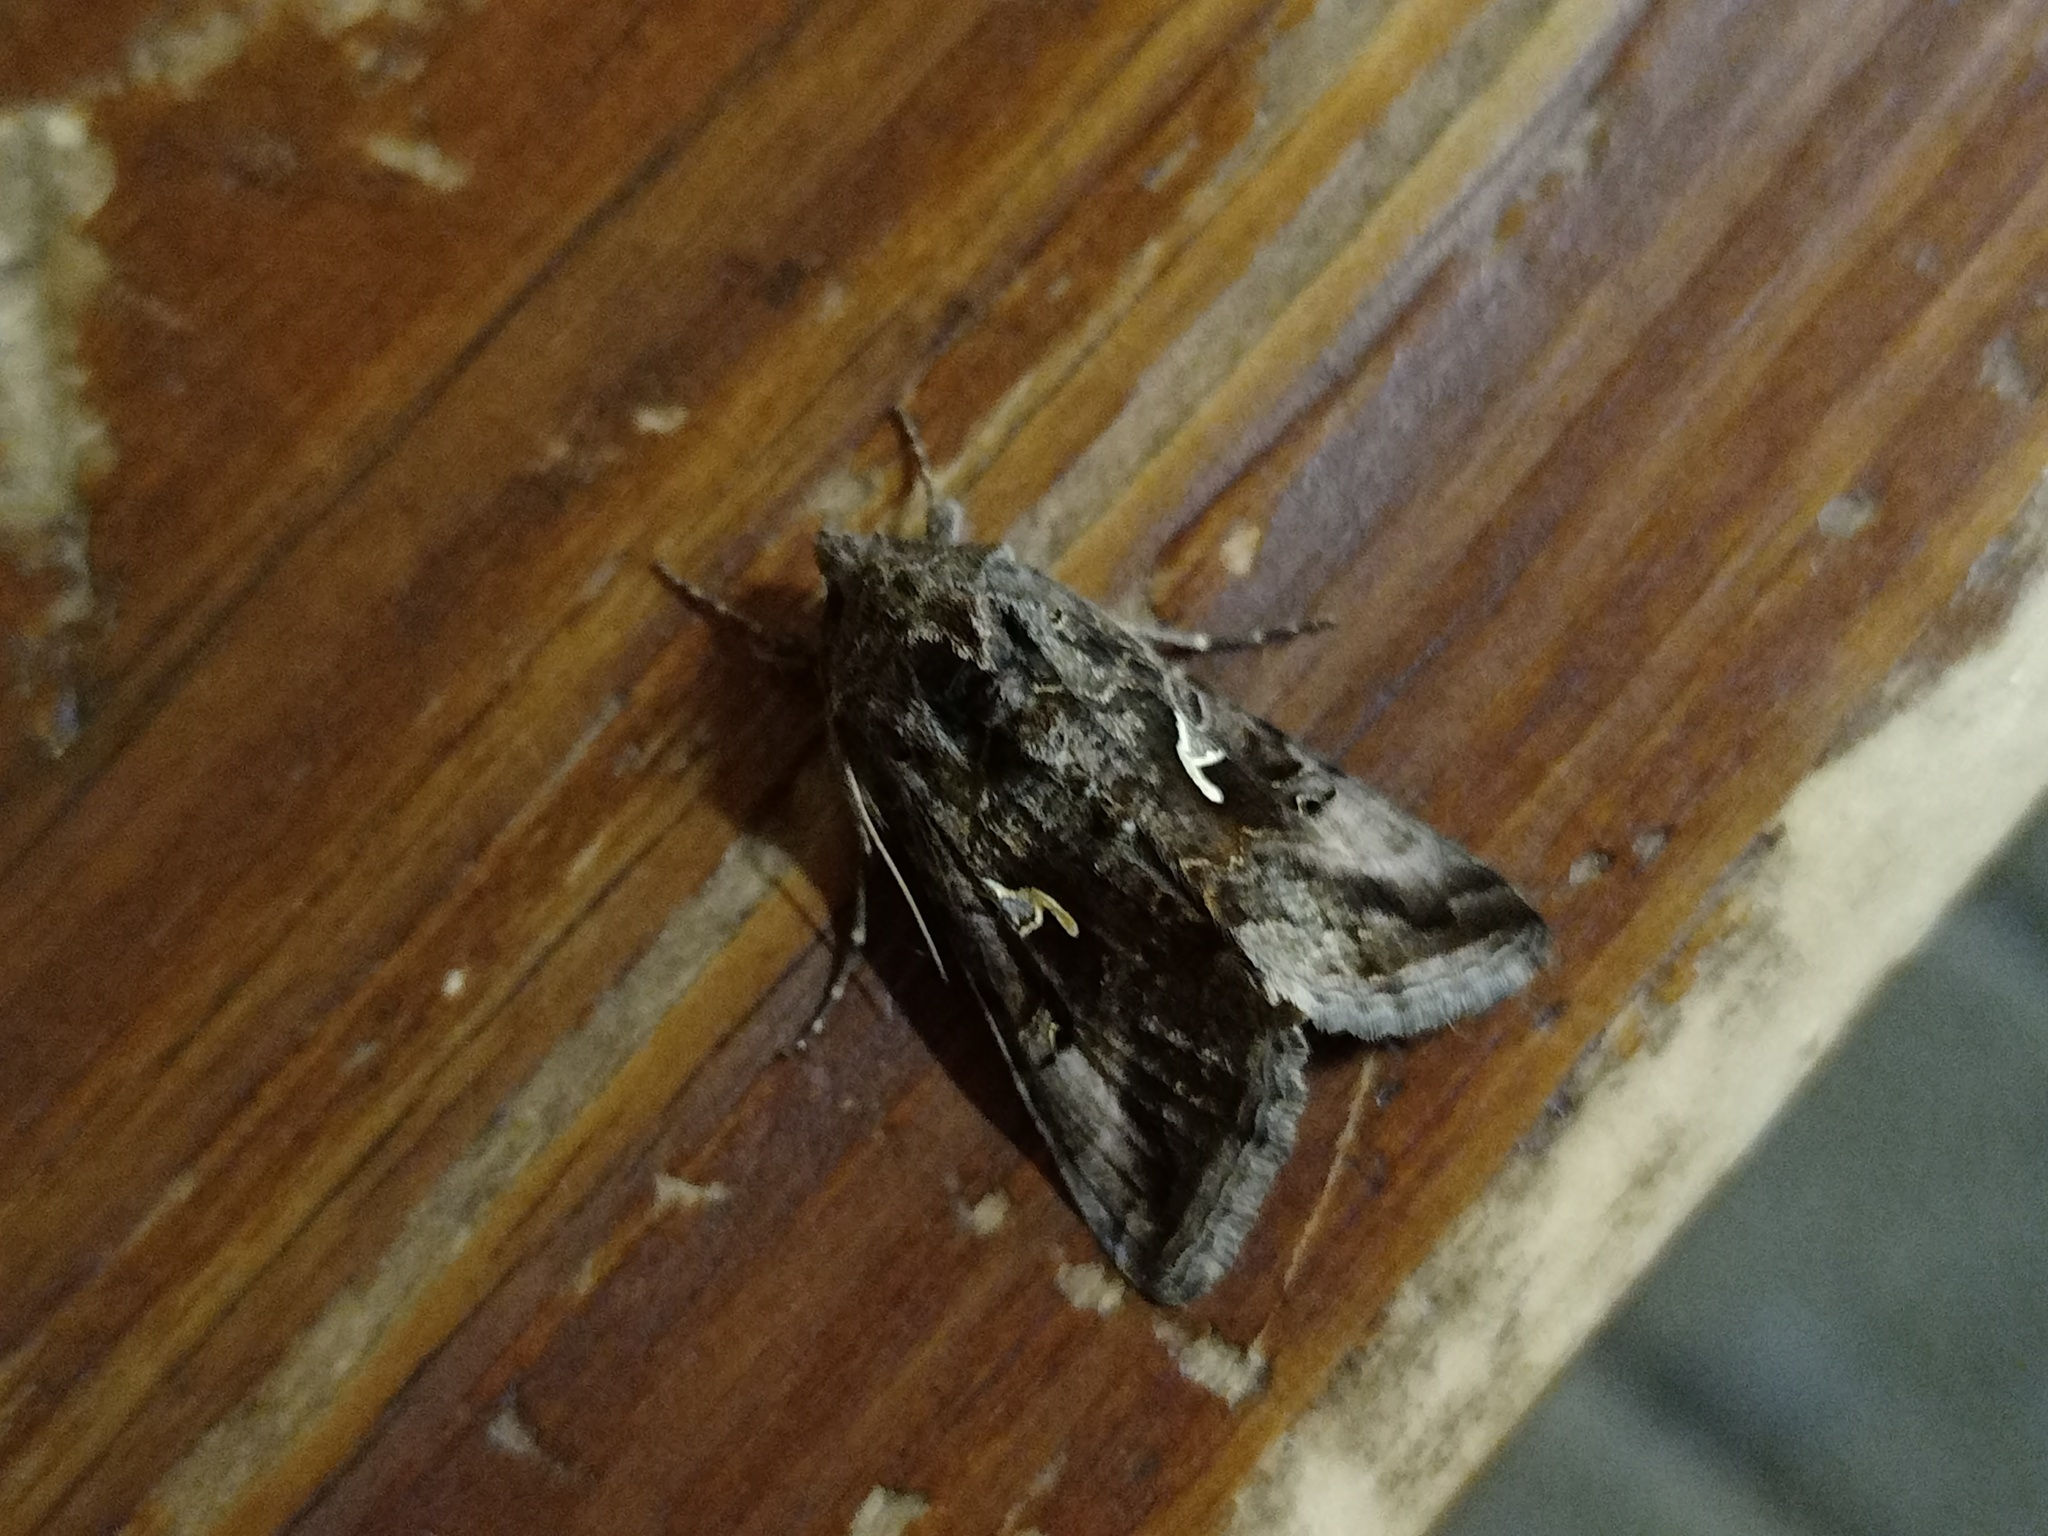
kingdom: Animalia
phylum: Arthropoda
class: Insecta
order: Lepidoptera
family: Noctuidae
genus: Autographa
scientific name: Autographa gamma
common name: Silver y
